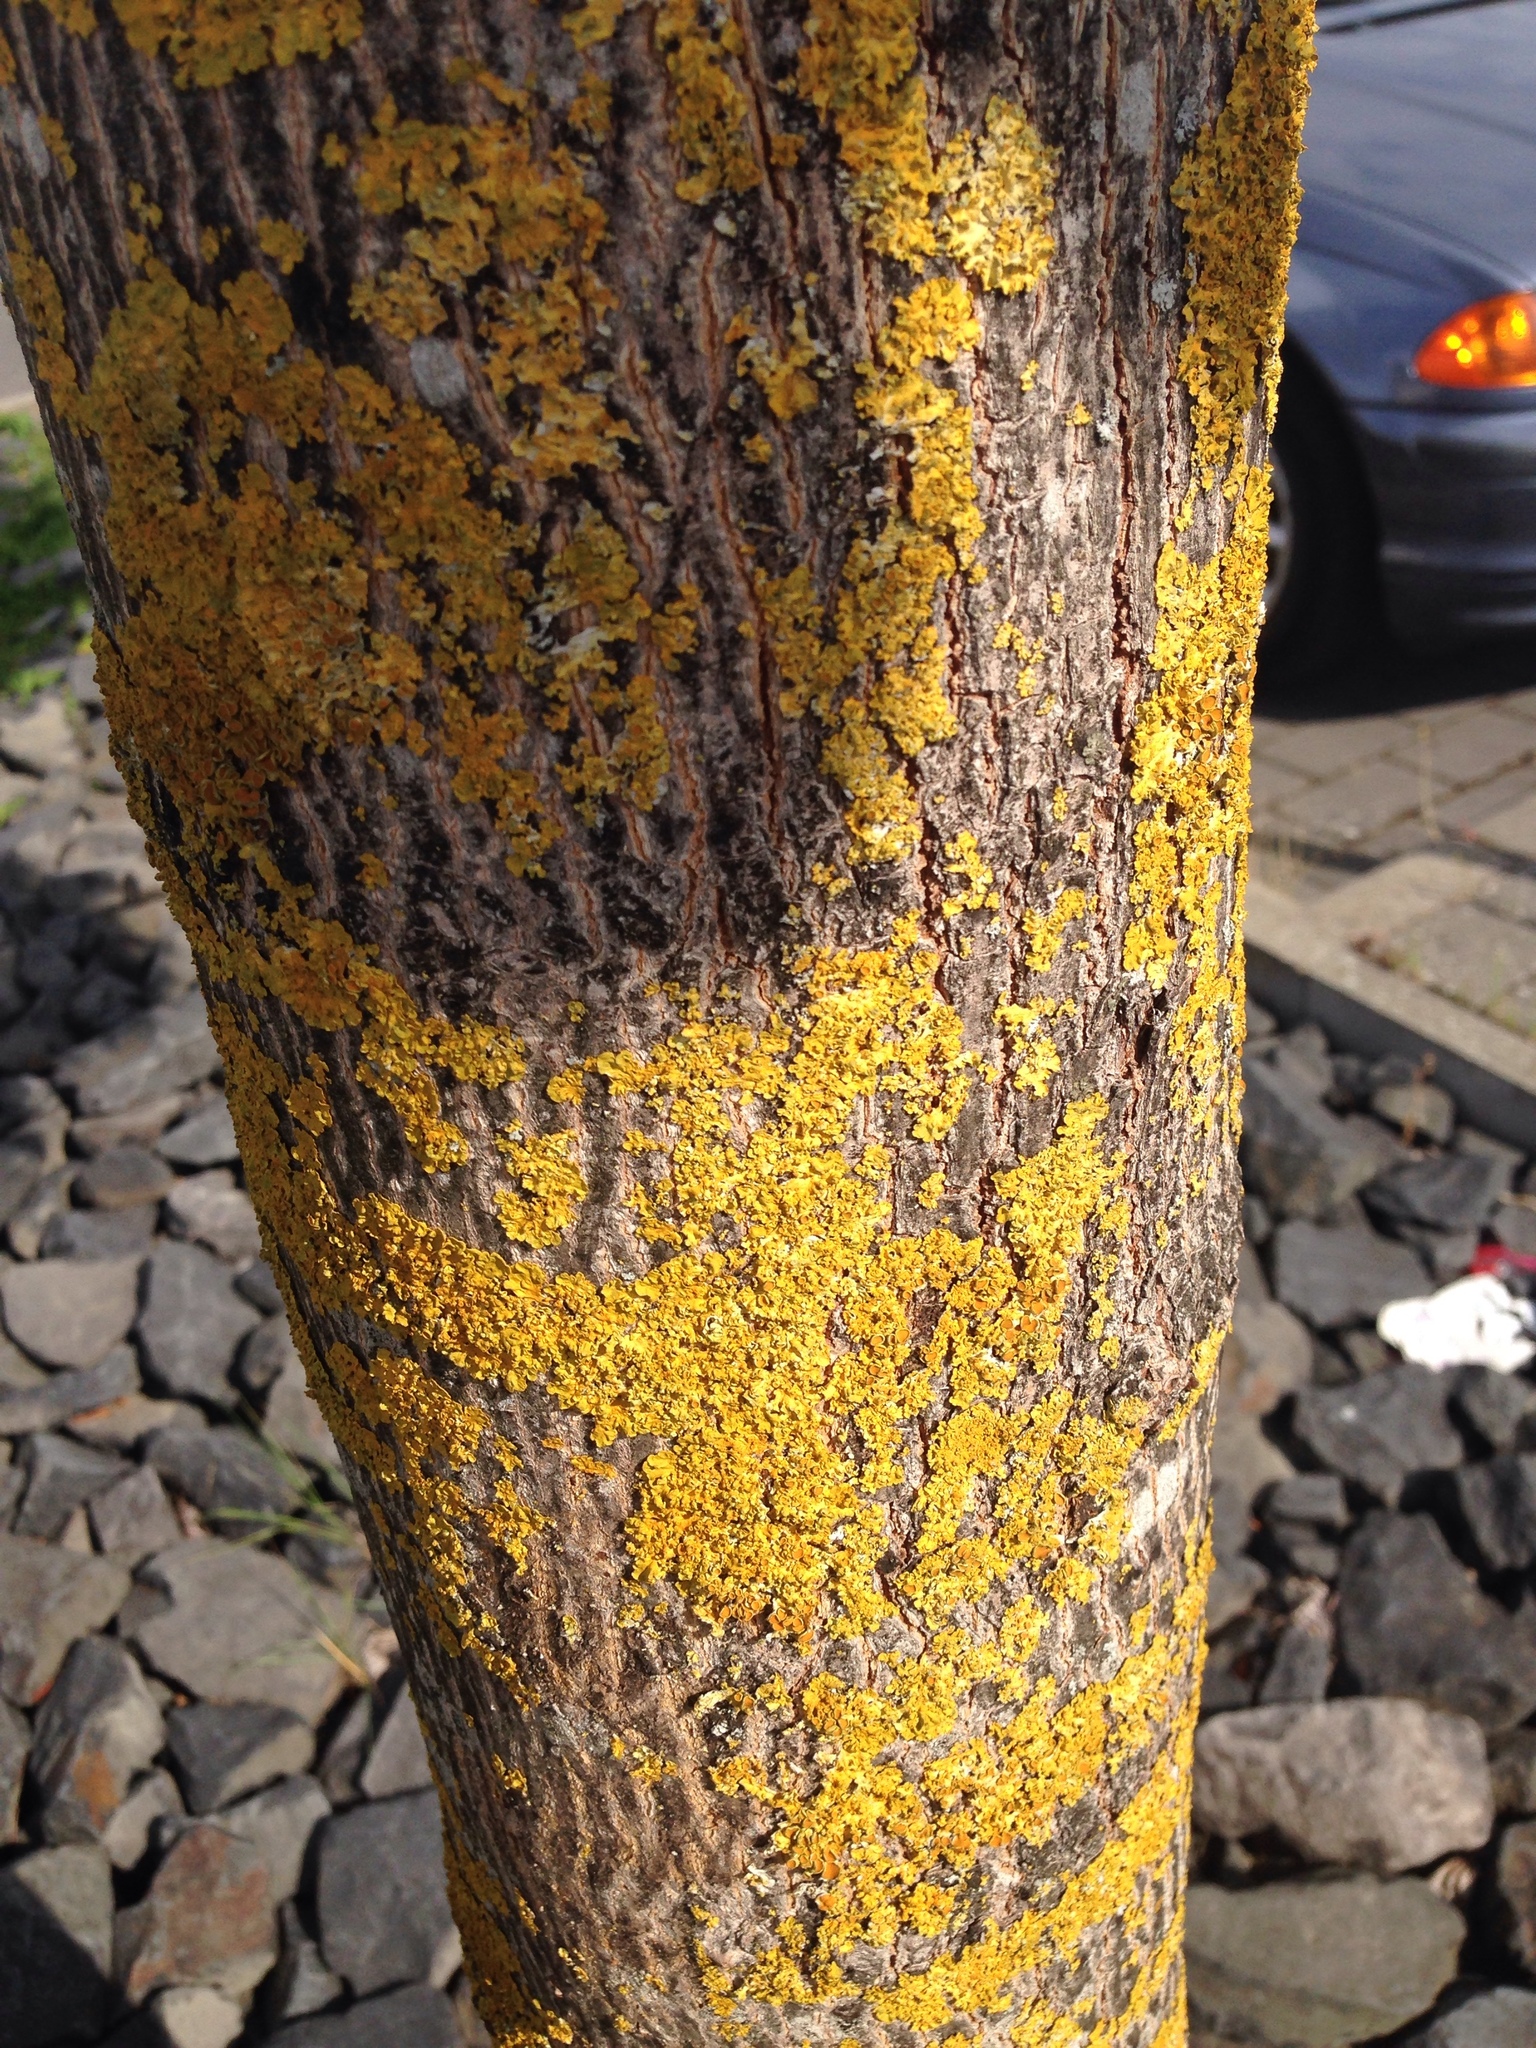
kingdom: Fungi
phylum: Ascomycota
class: Lecanoromycetes
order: Teloschistales
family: Teloschistaceae
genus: Xanthoria
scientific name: Xanthoria parietina
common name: Common orange lichen
